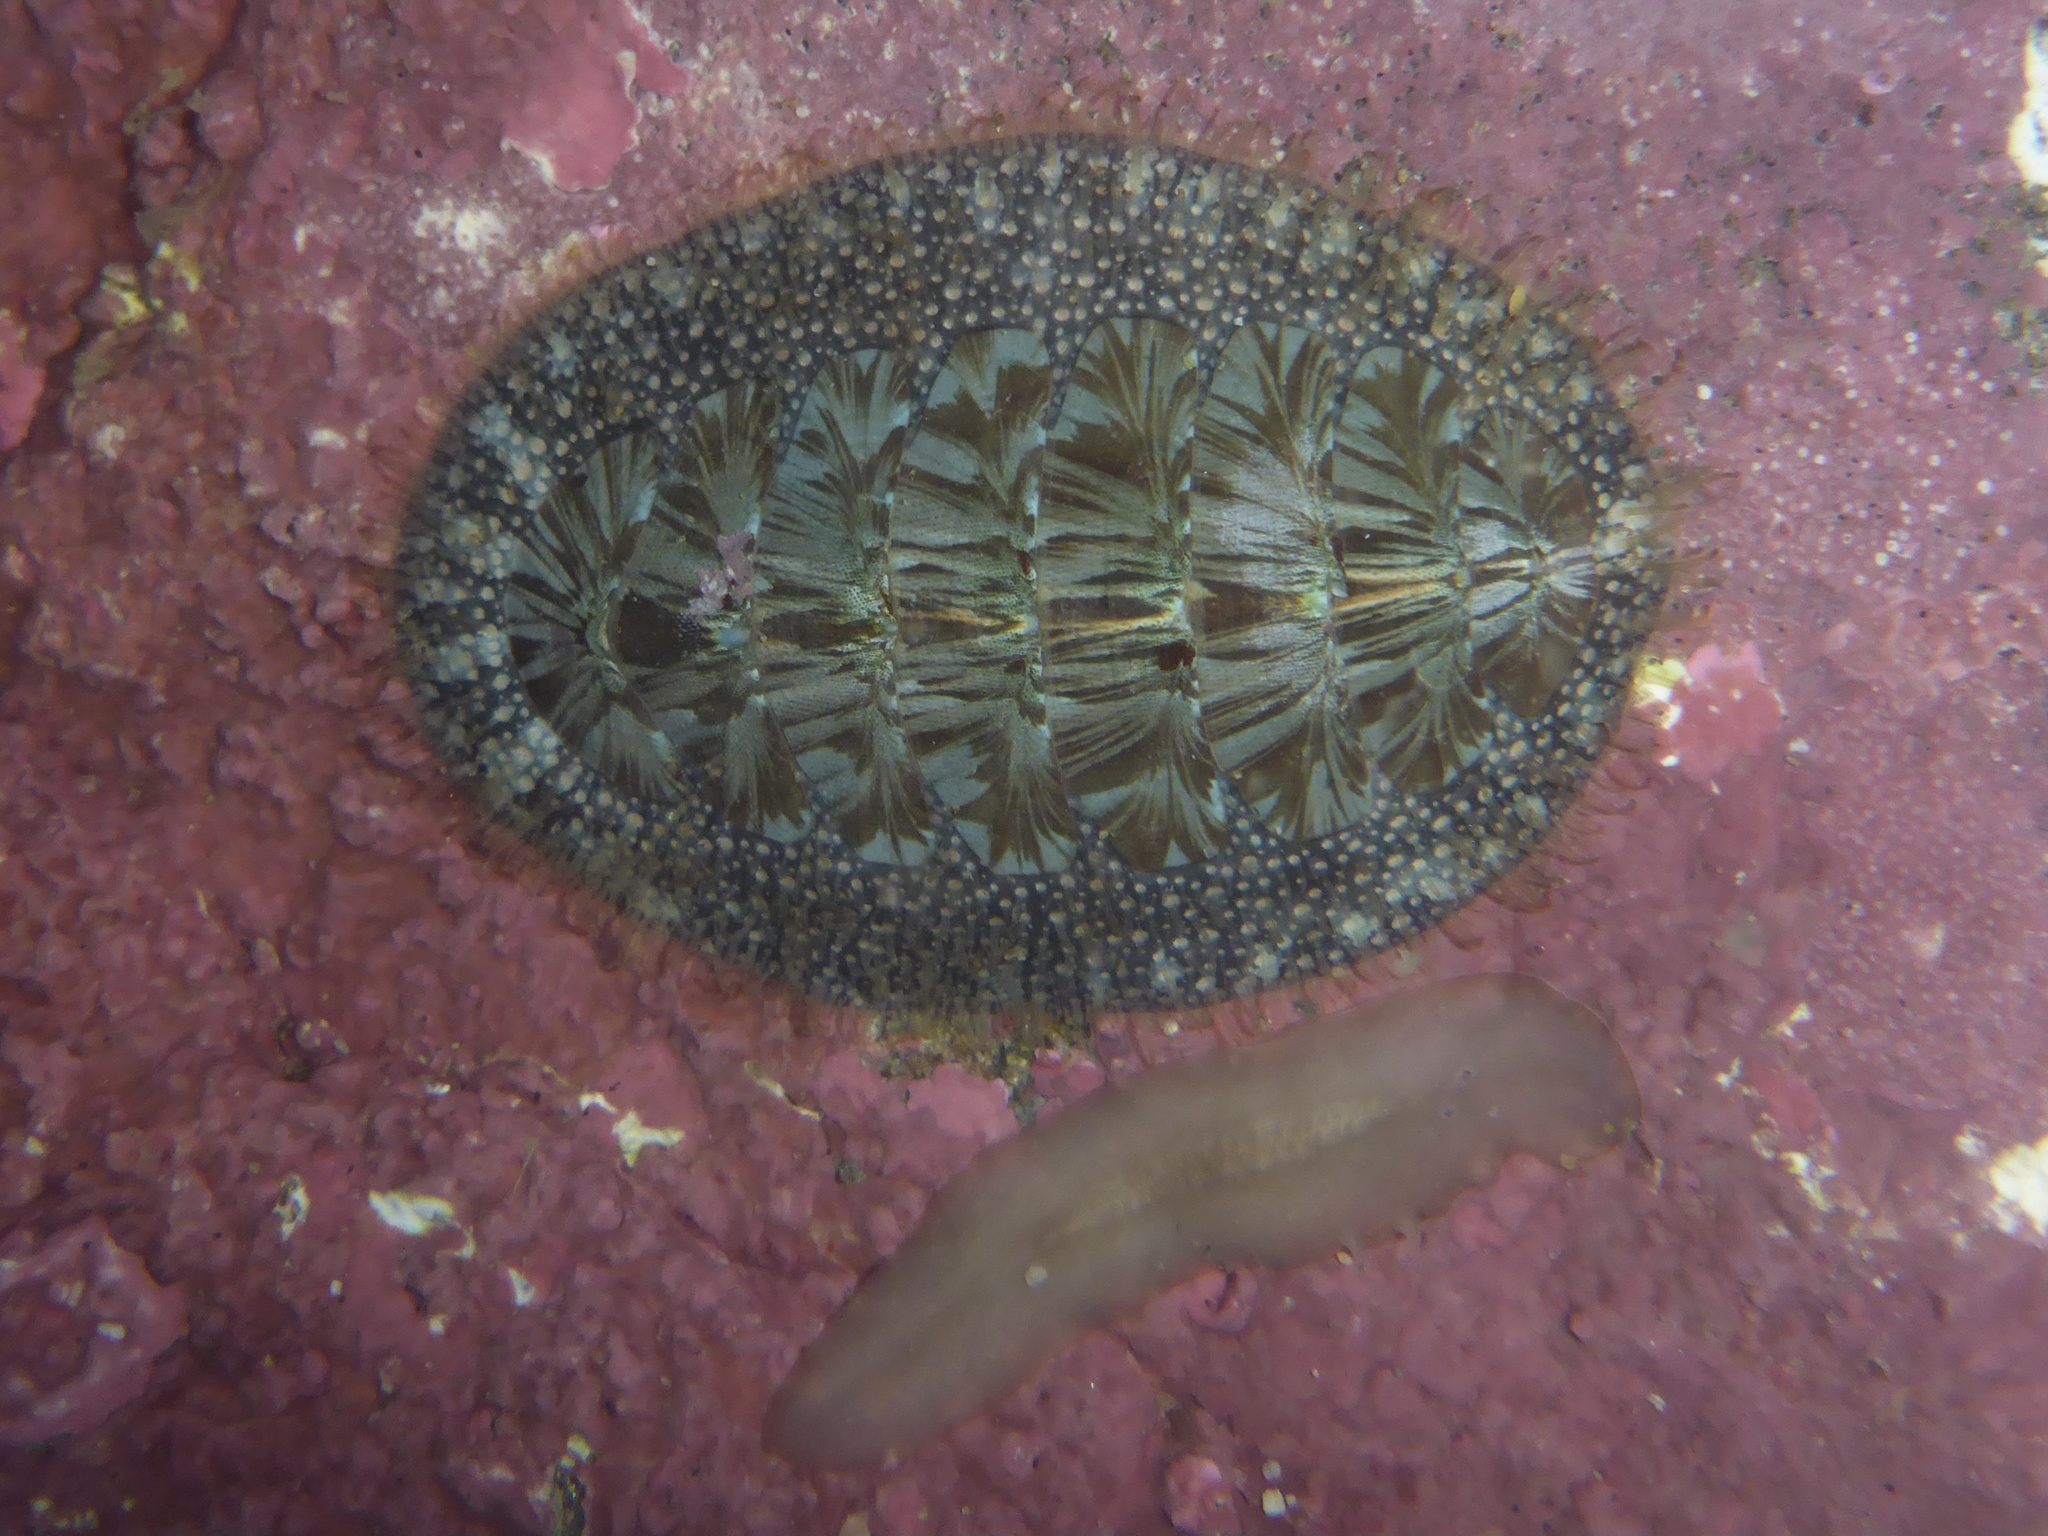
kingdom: Animalia
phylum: Mollusca
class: Polyplacophora
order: Chitonida
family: Mopaliidae
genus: Mopalia
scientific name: Mopalia lignosa
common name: Woody chiton
